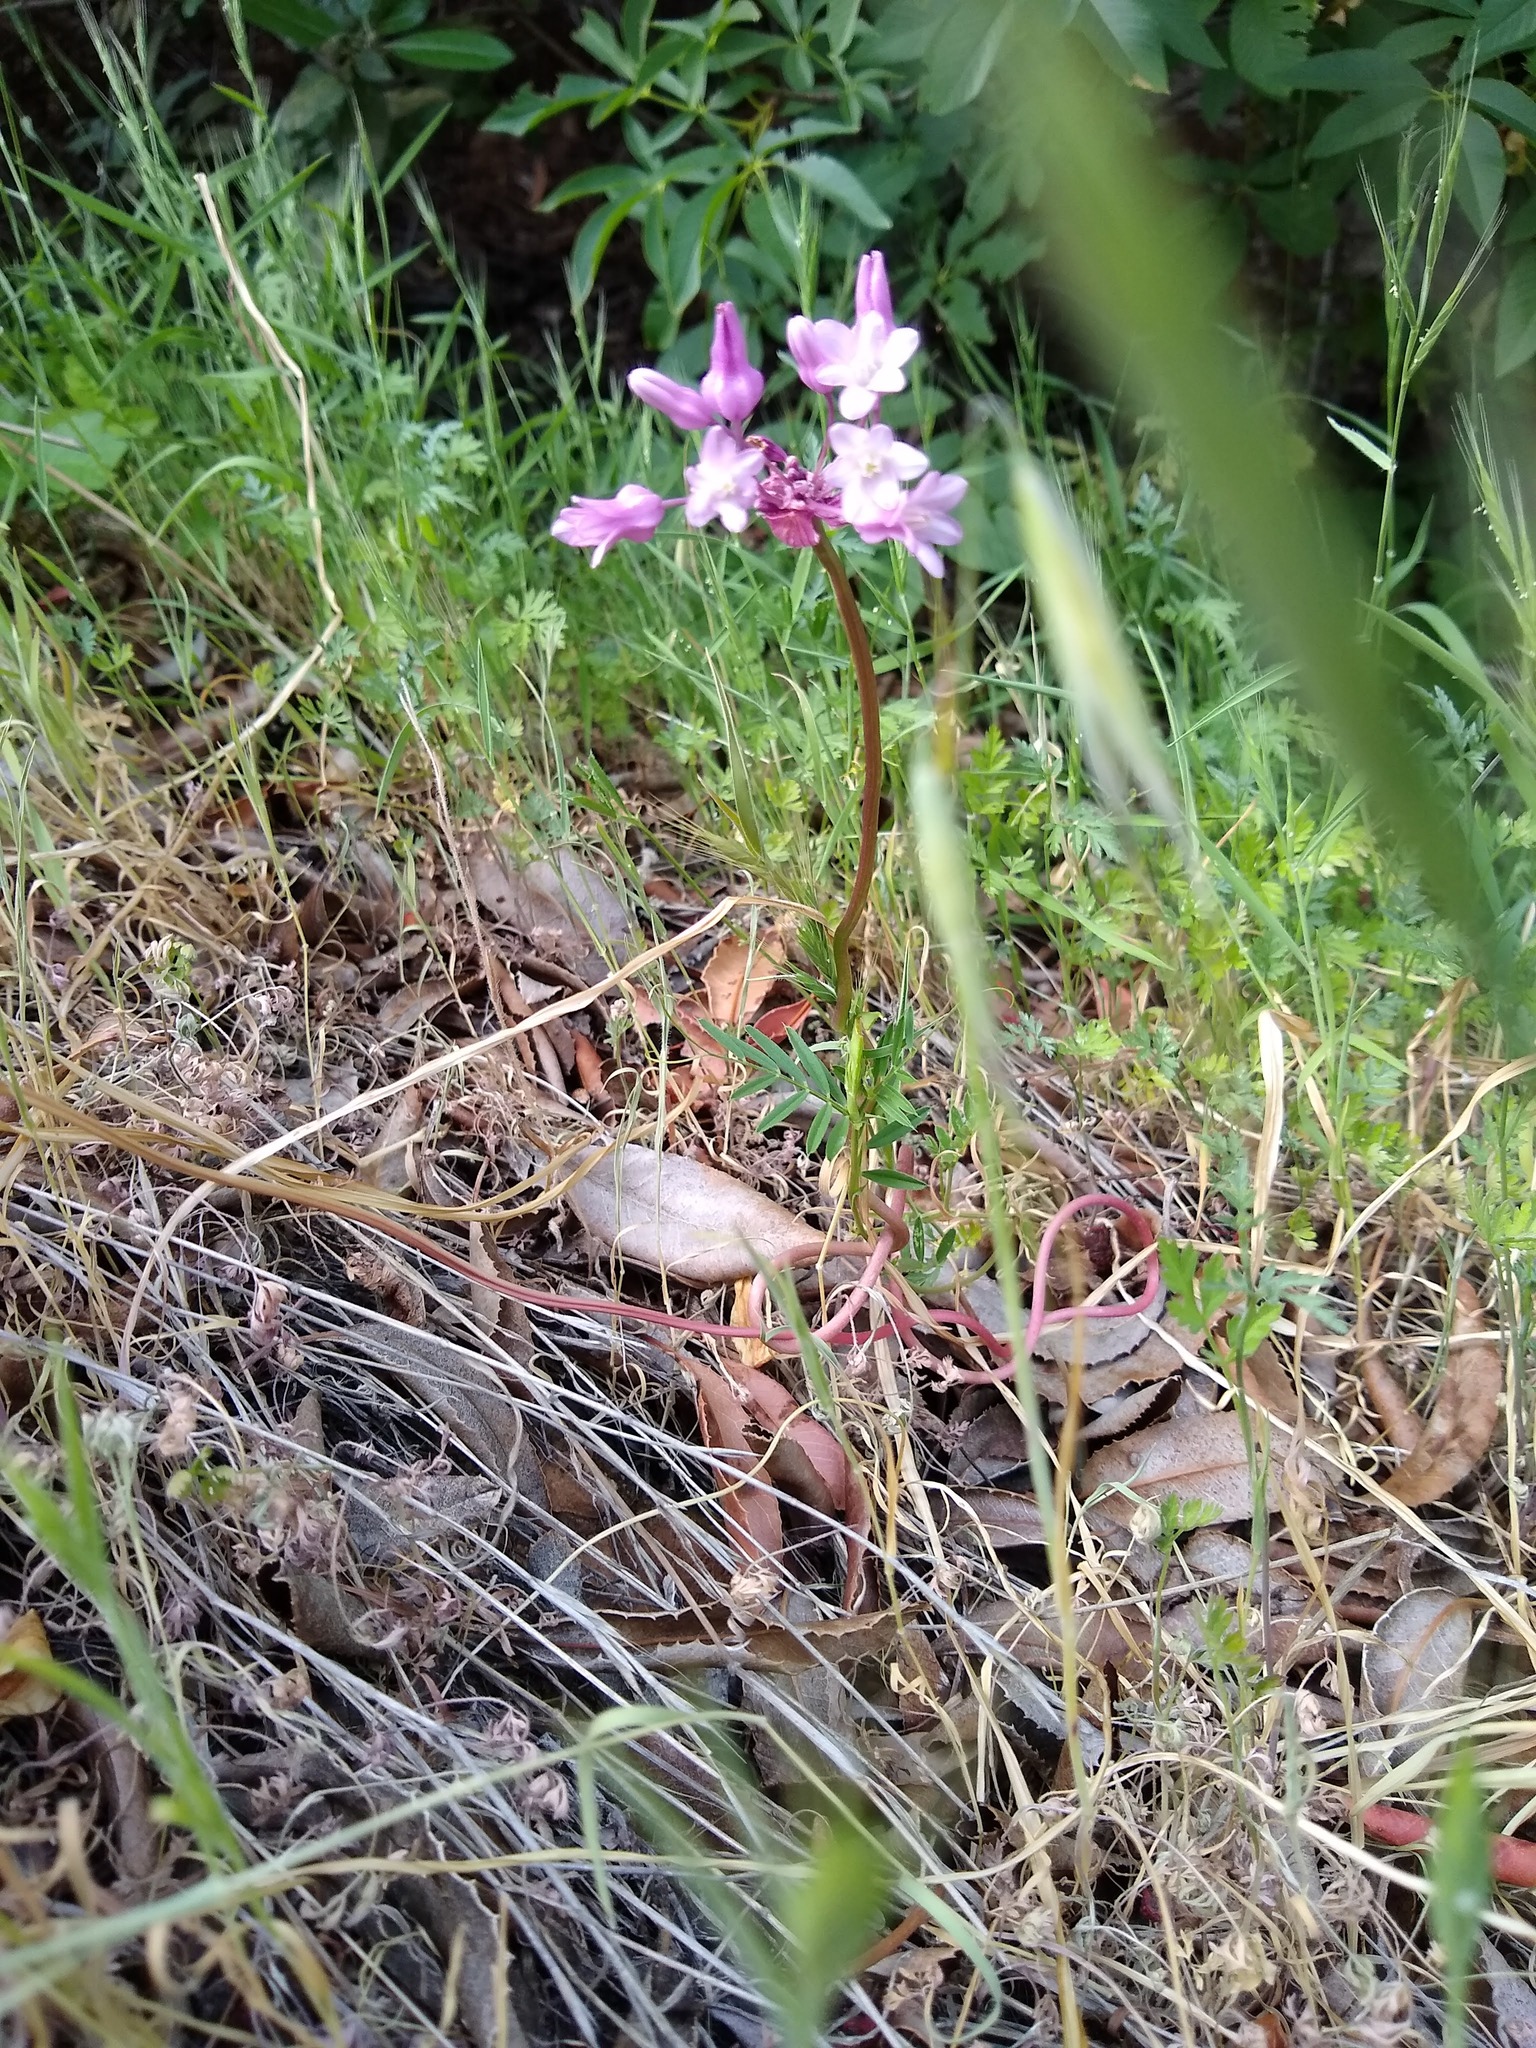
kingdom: Plantae
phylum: Tracheophyta
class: Liliopsida
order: Asparagales
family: Asparagaceae
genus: Dichelostemma
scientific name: Dichelostemma volubile
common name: Trining brodiaea
